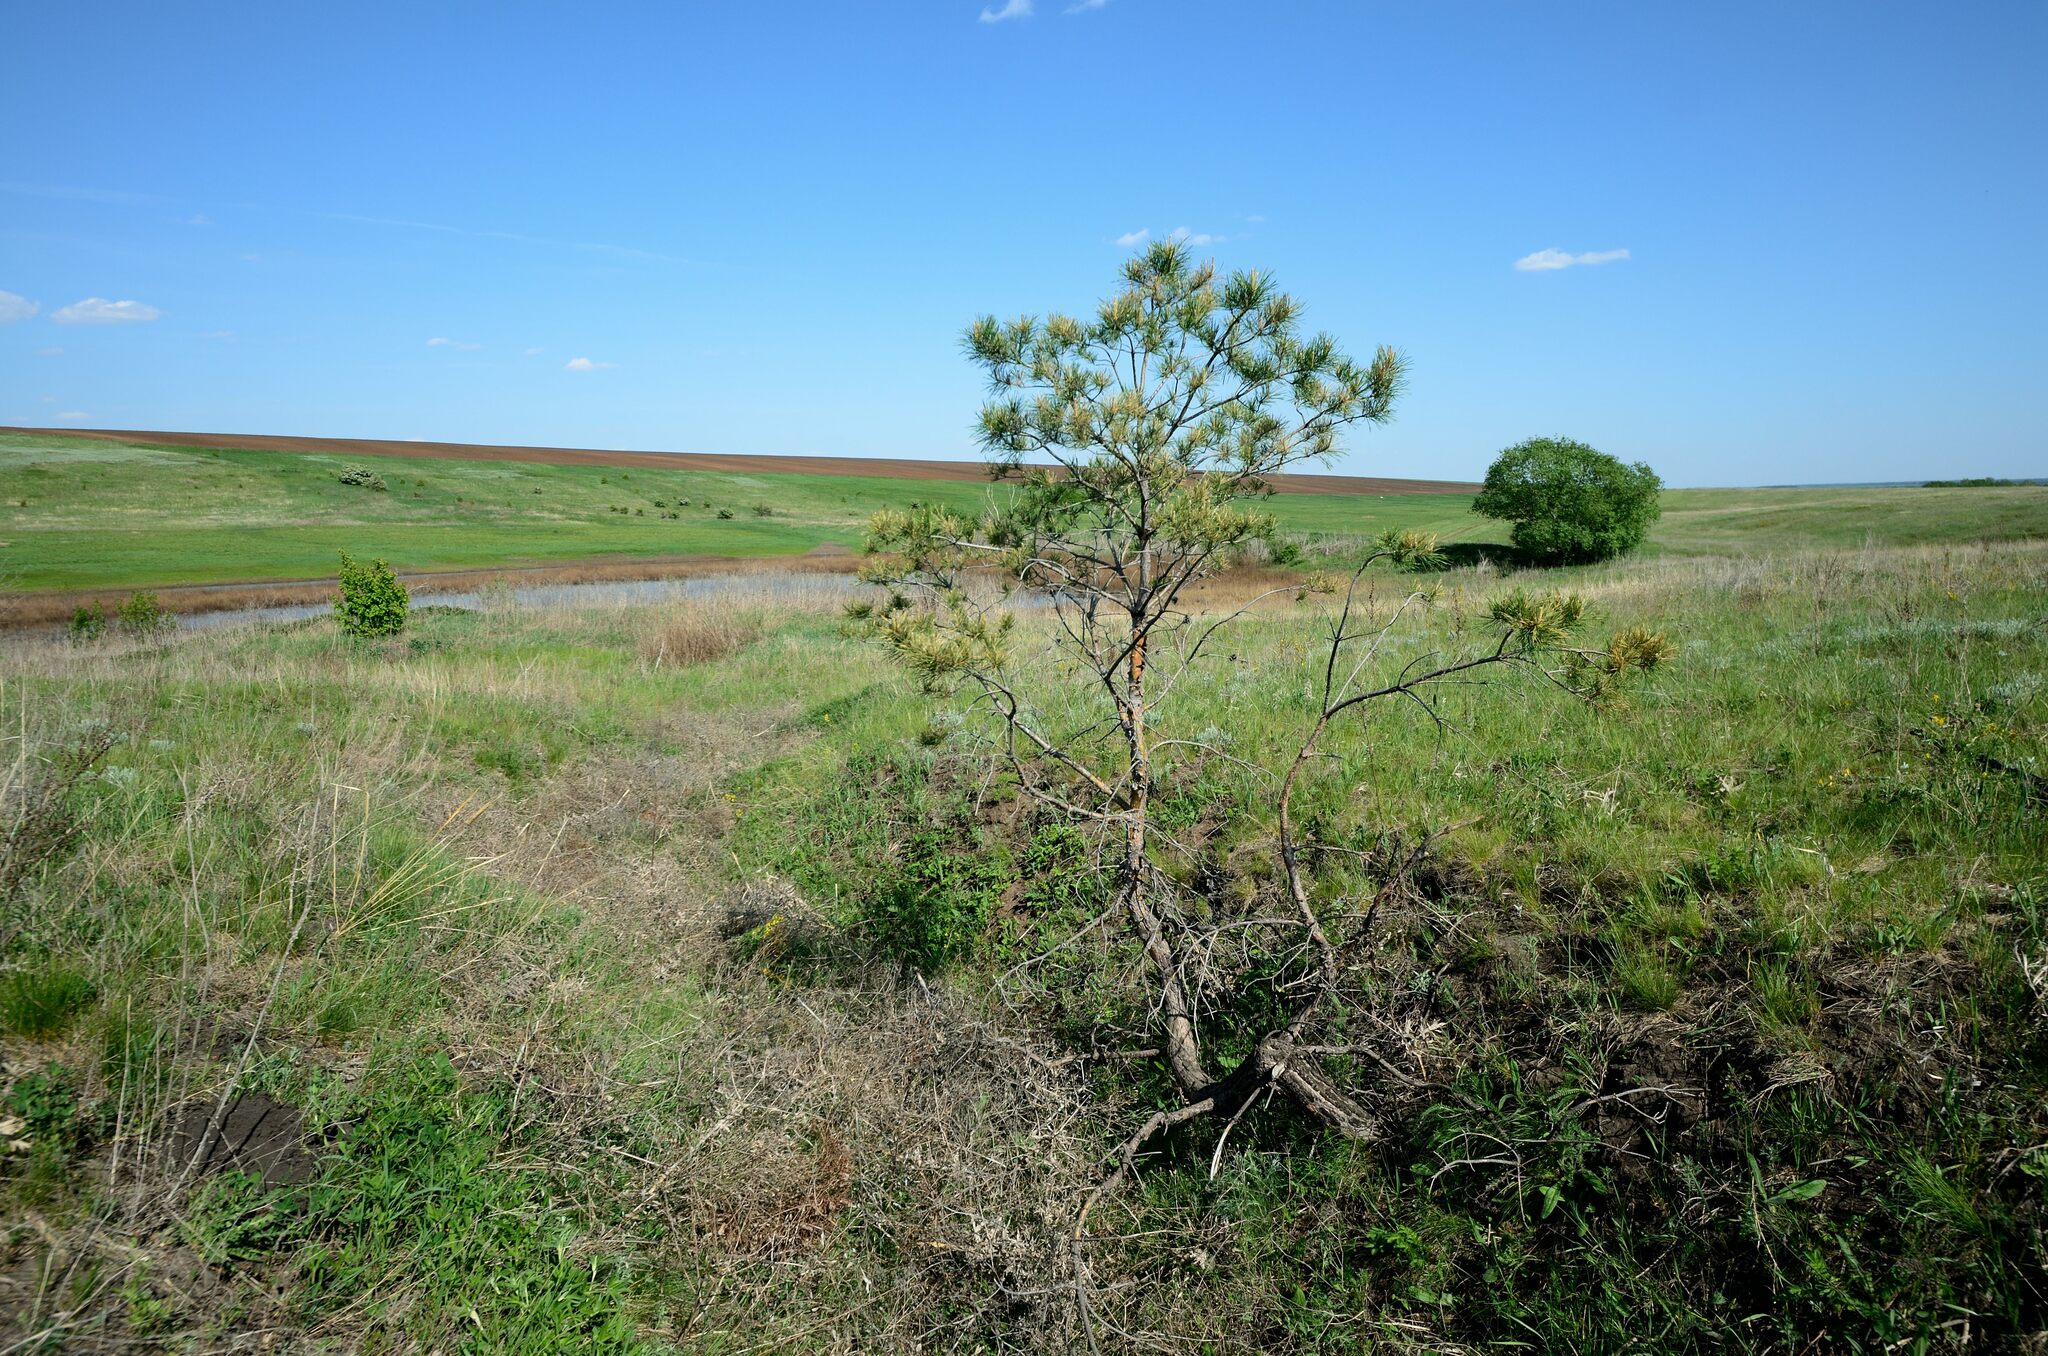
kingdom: Plantae
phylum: Tracheophyta
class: Pinopsida
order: Pinales
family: Pinaceae
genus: Pinus
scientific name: Pinus sylvestris
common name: Scots pine
